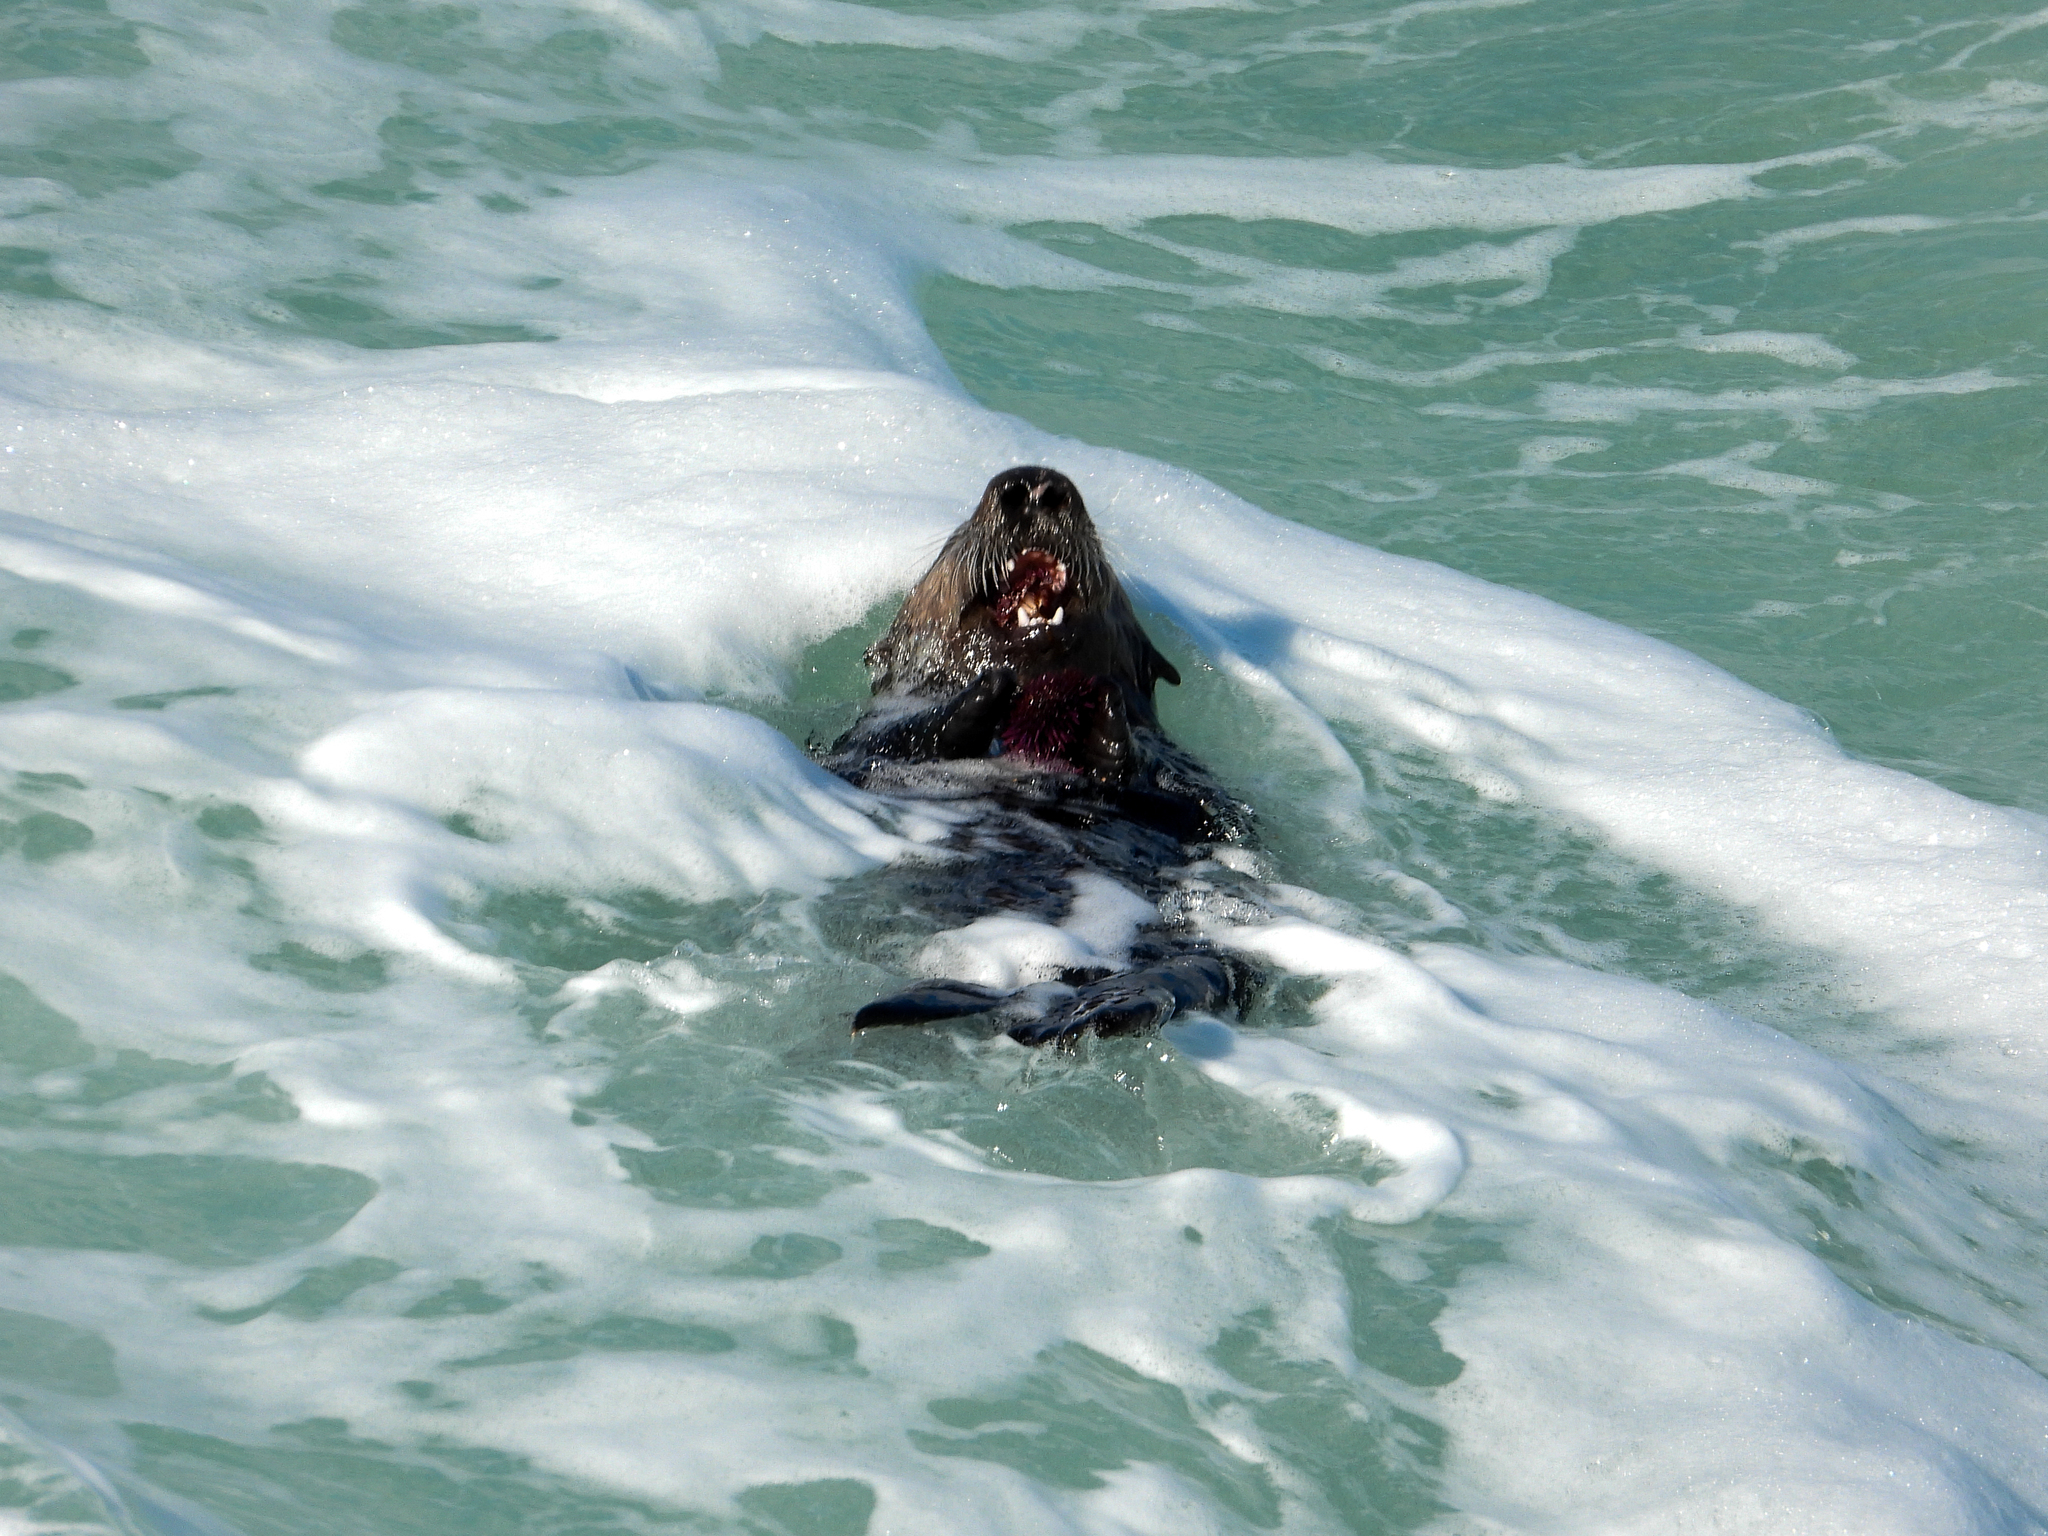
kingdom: Animalia
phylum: Chordata
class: Mammalia
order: Carnivora
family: Mustelidae
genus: Enhydra
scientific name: Enhydra lutris
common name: Sea otter
